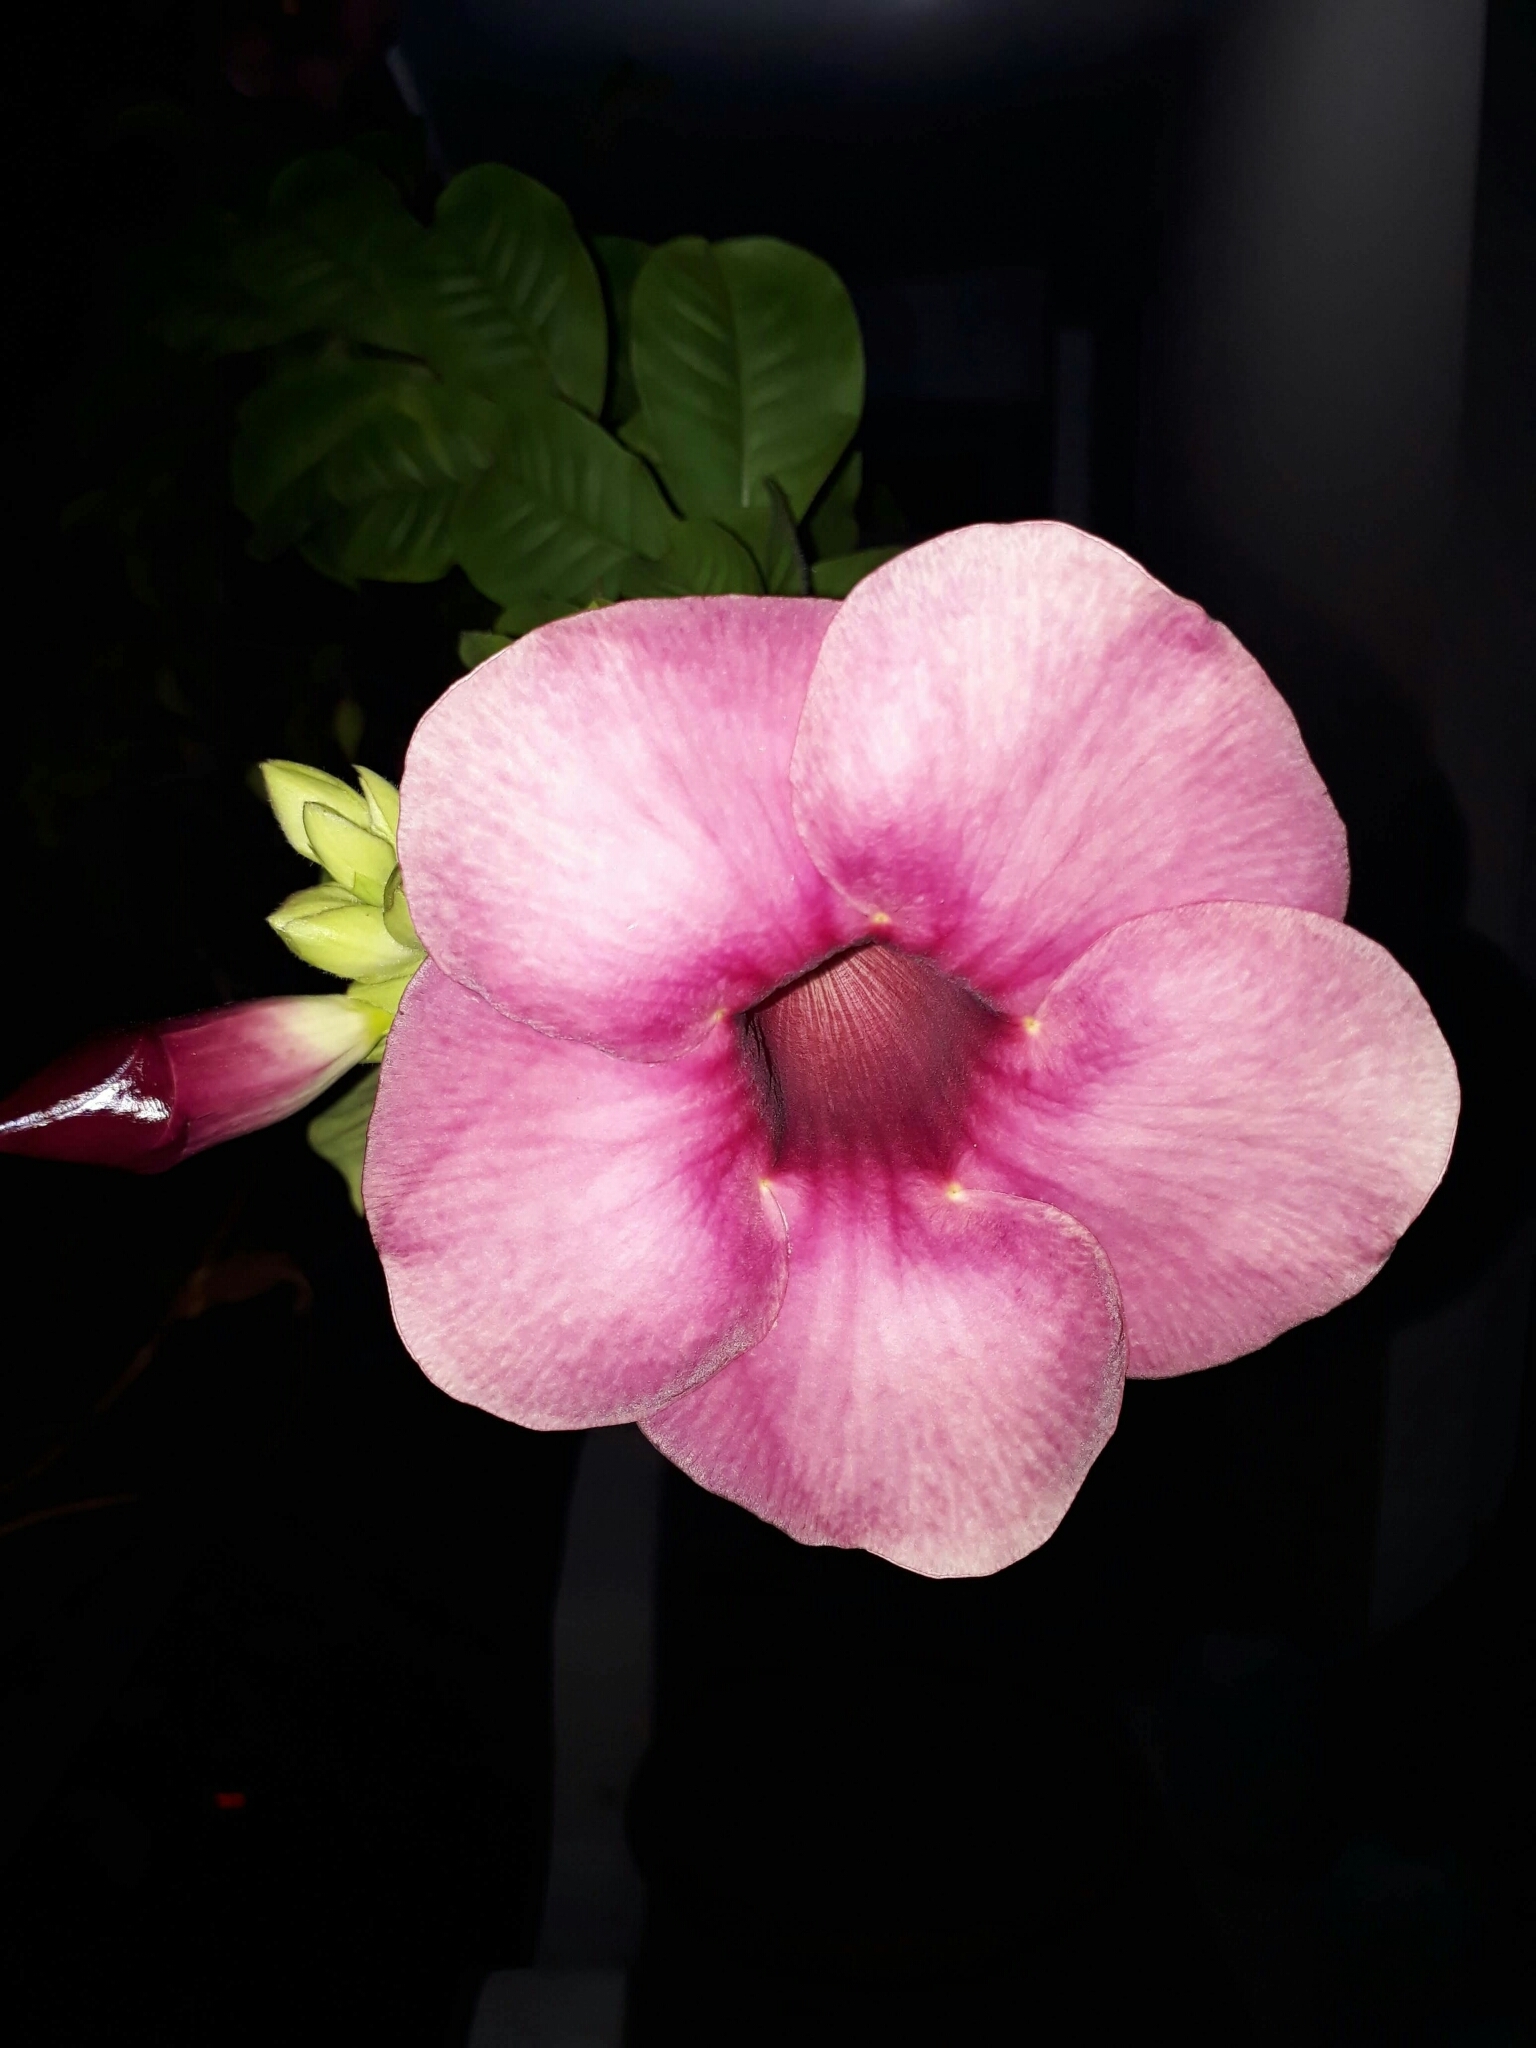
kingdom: Plantae
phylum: Tracheophyta
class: Magnoliopsida
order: Gentianales
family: Apocynaceae
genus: Allamanda
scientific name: Allamanda blanchetii
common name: Purple allamanda
